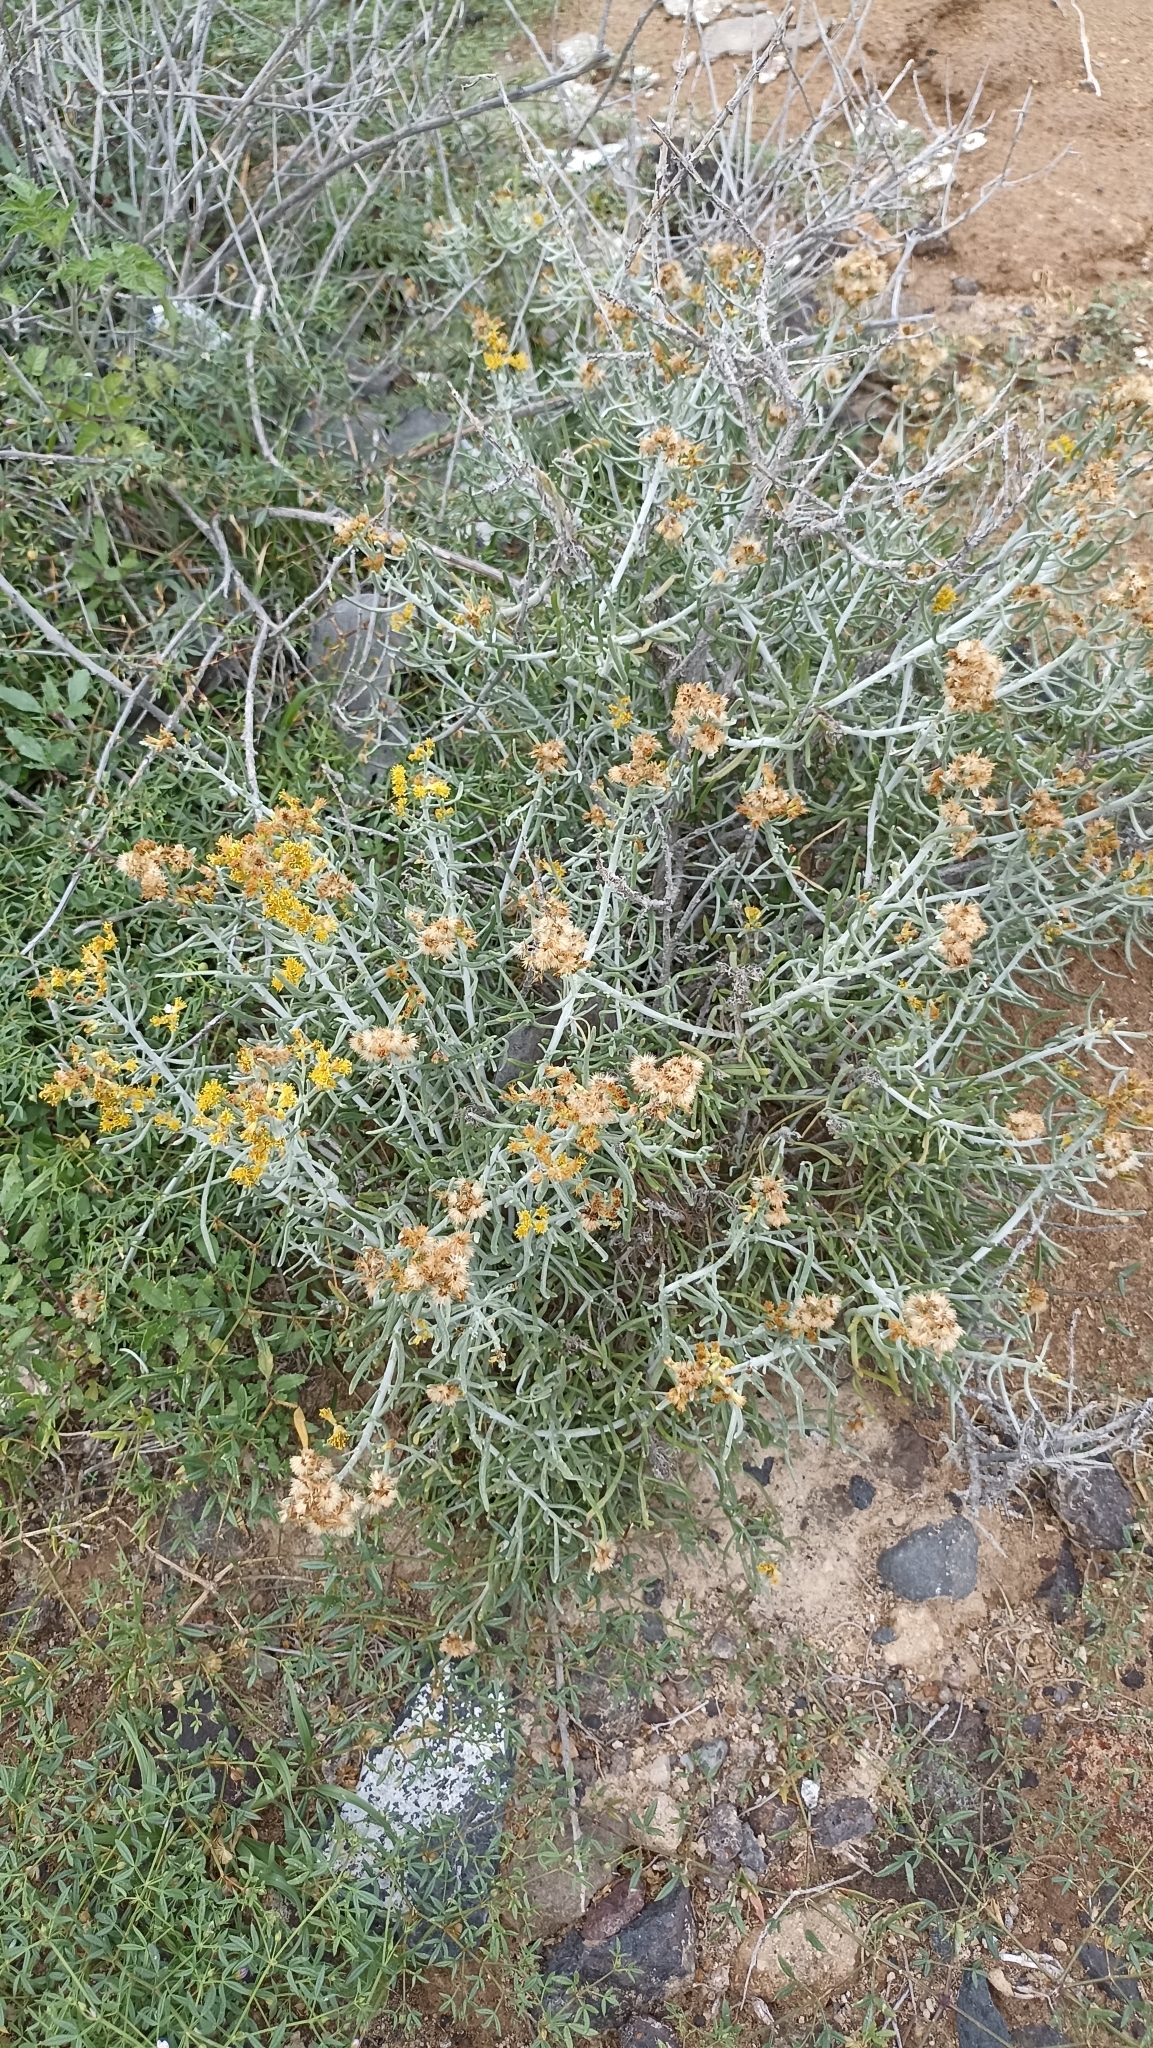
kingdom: Plantae
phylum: Tracheophyta
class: Magnoliopsida
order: Asterales
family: Asteraceae
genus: Schizogyne
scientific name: Schizogyne sericea
